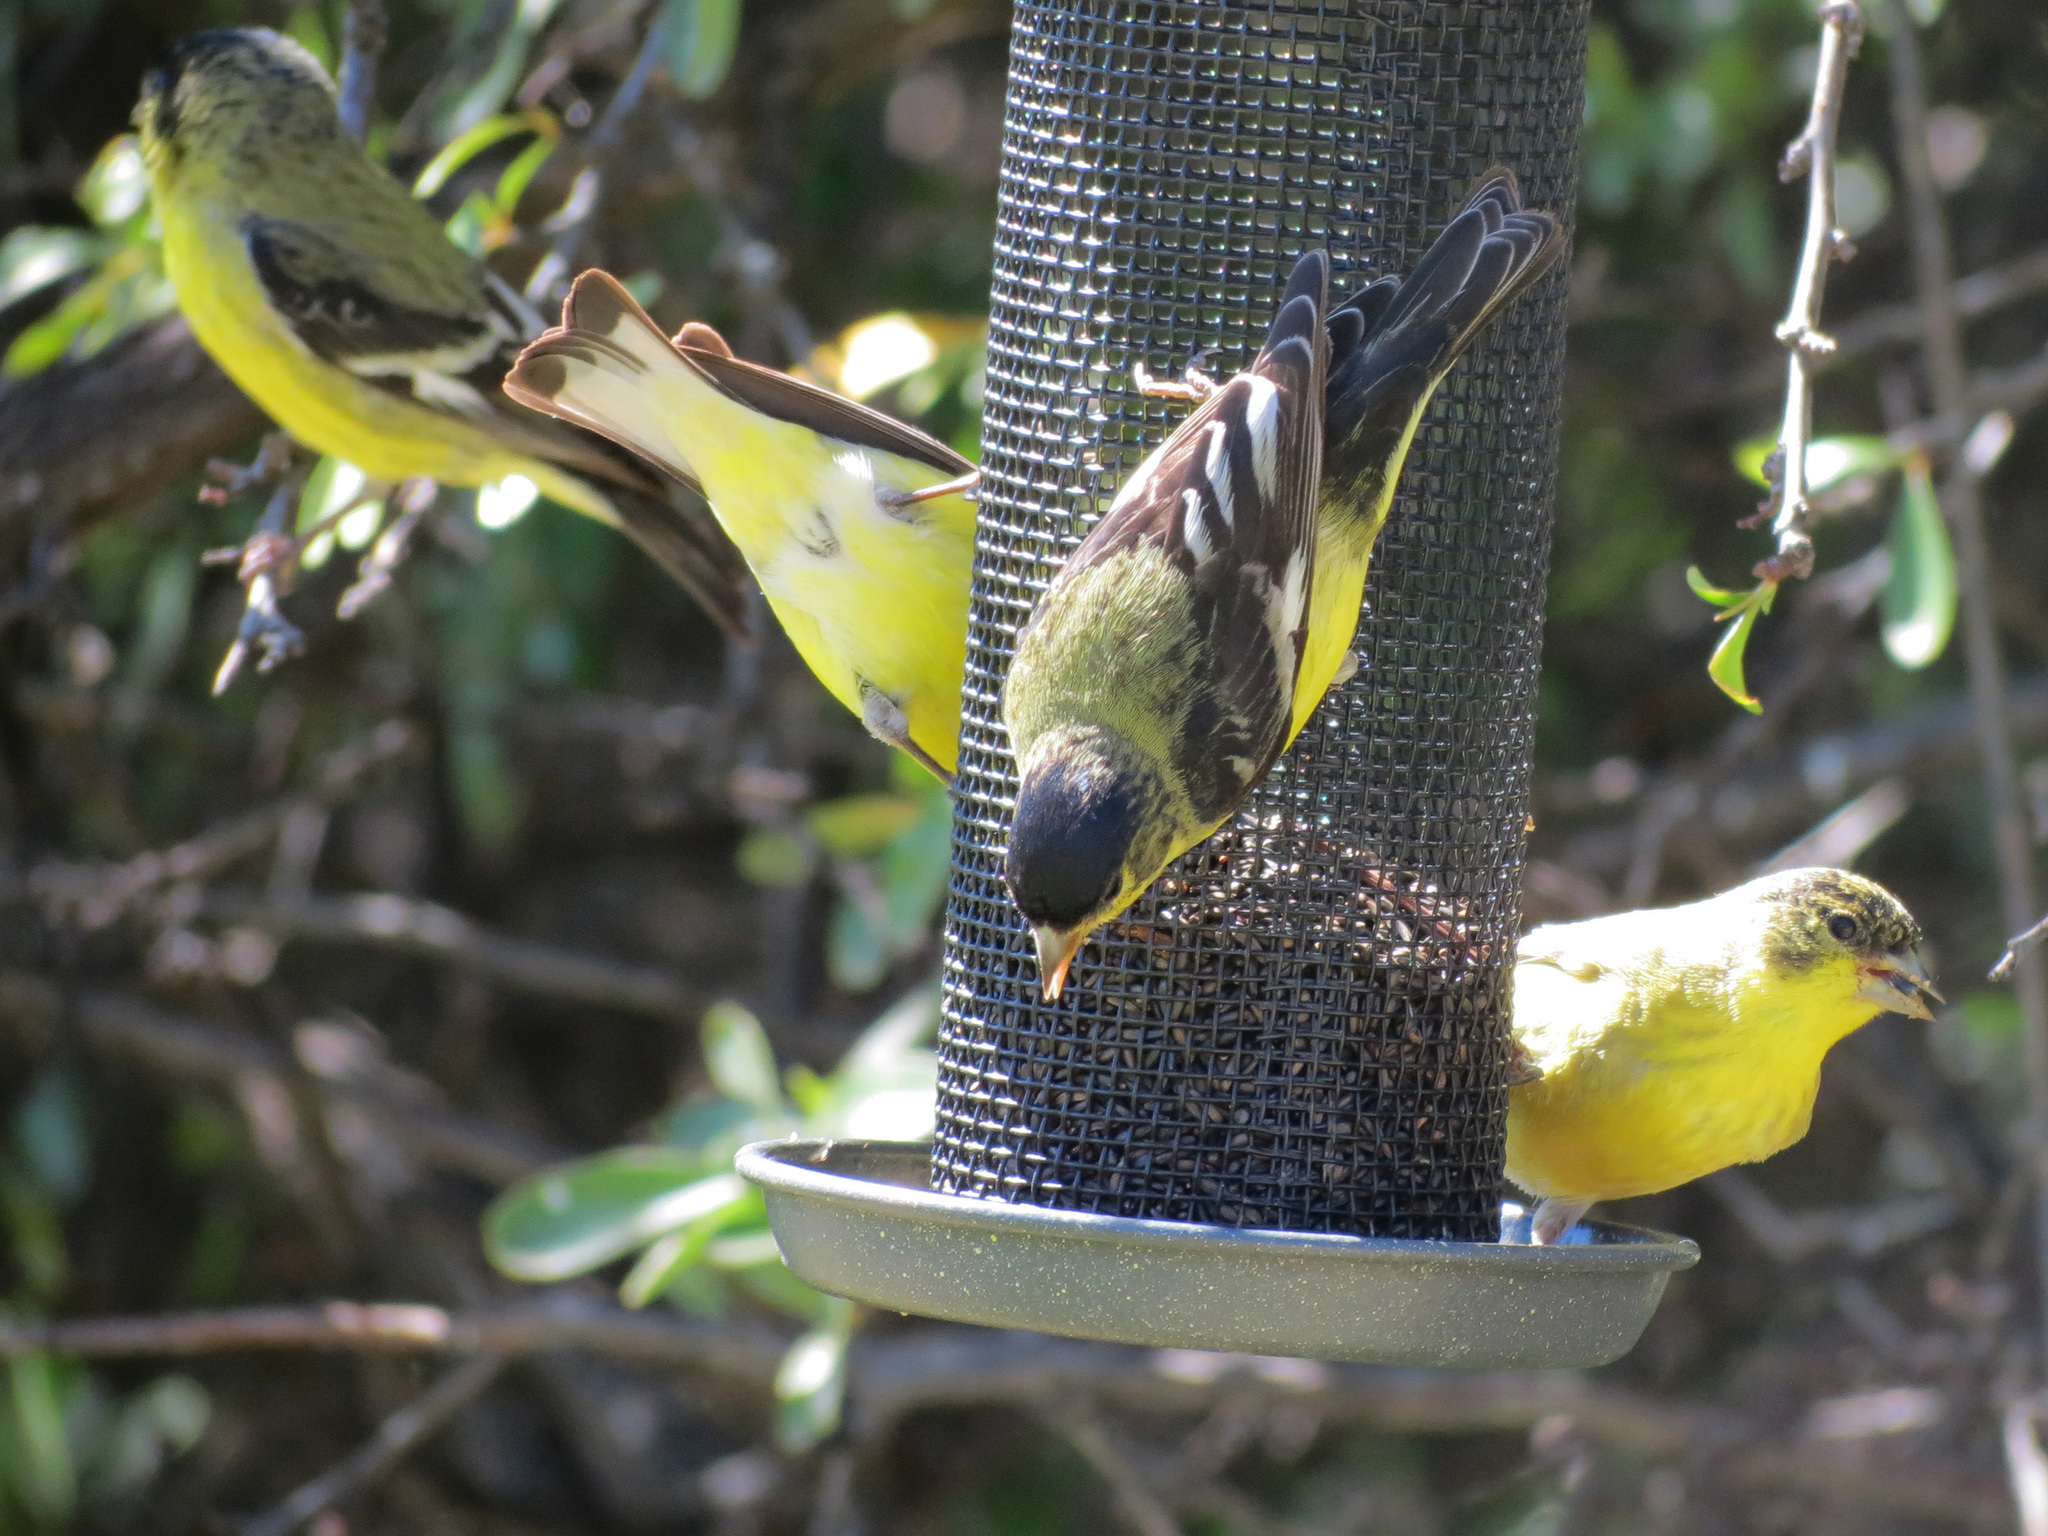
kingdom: Animalia
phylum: Chordata
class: Aves
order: Passeriformes
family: Fringillidae
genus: Spinus
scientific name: Spinus psaltria
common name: Lesser goldfinch
